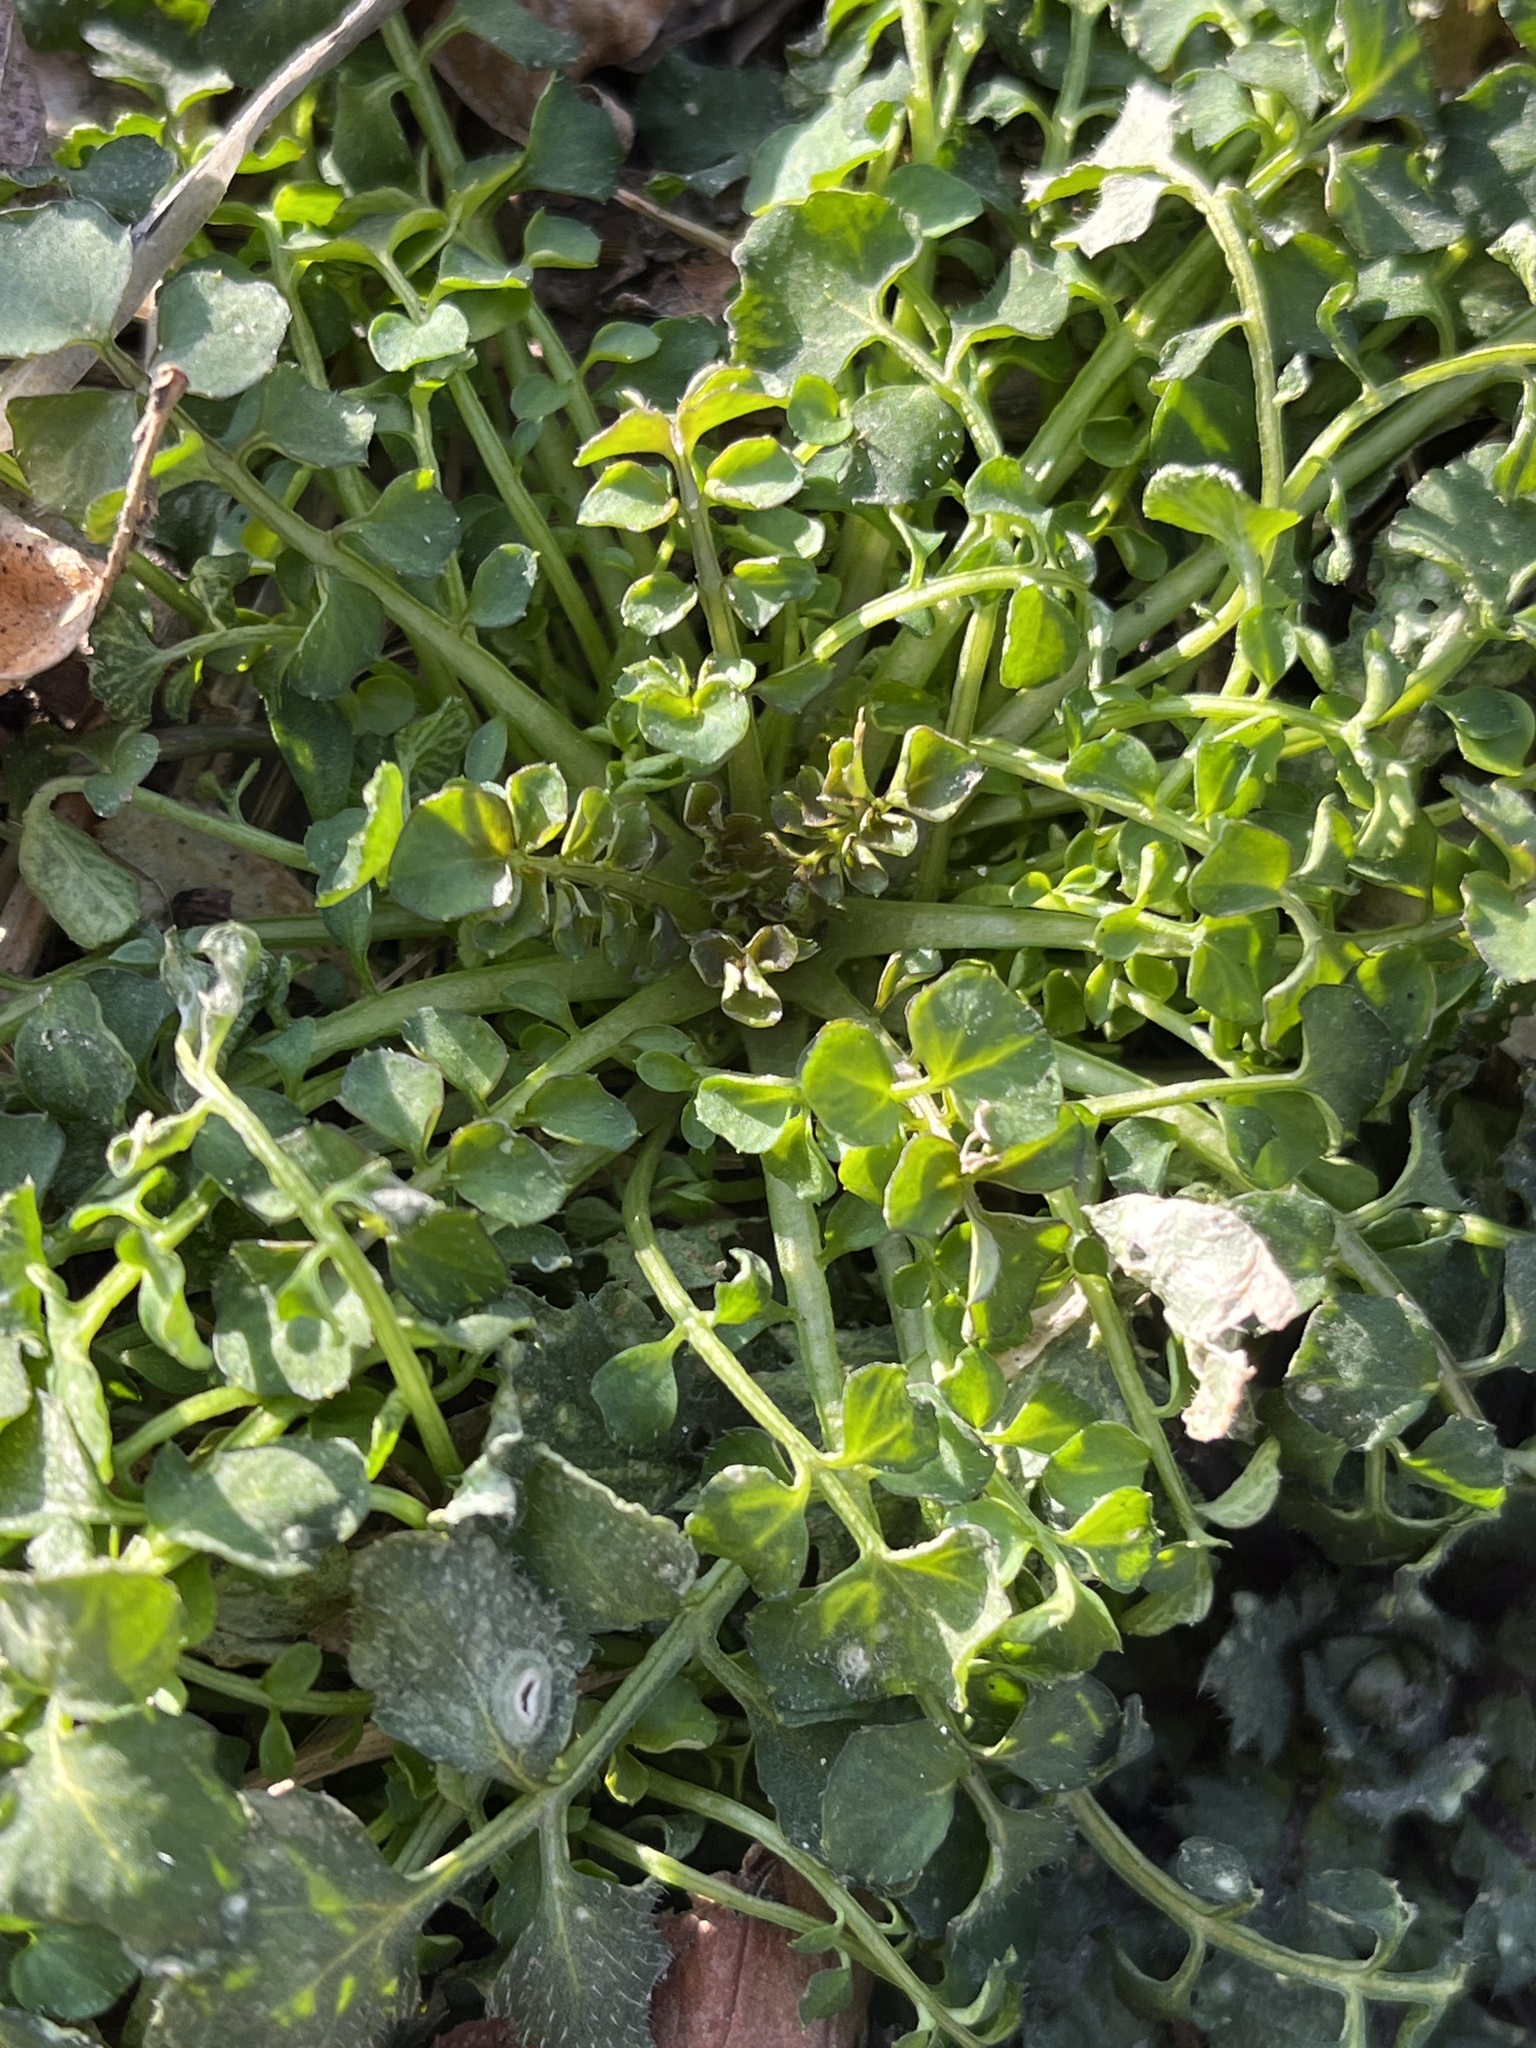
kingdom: Plantae
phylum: Tracheophyta
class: Magnoliopsida
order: Brassicales
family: Brassicaceae
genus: Cardamine
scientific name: Cardamine hirsuta
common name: Hairy bittercress
